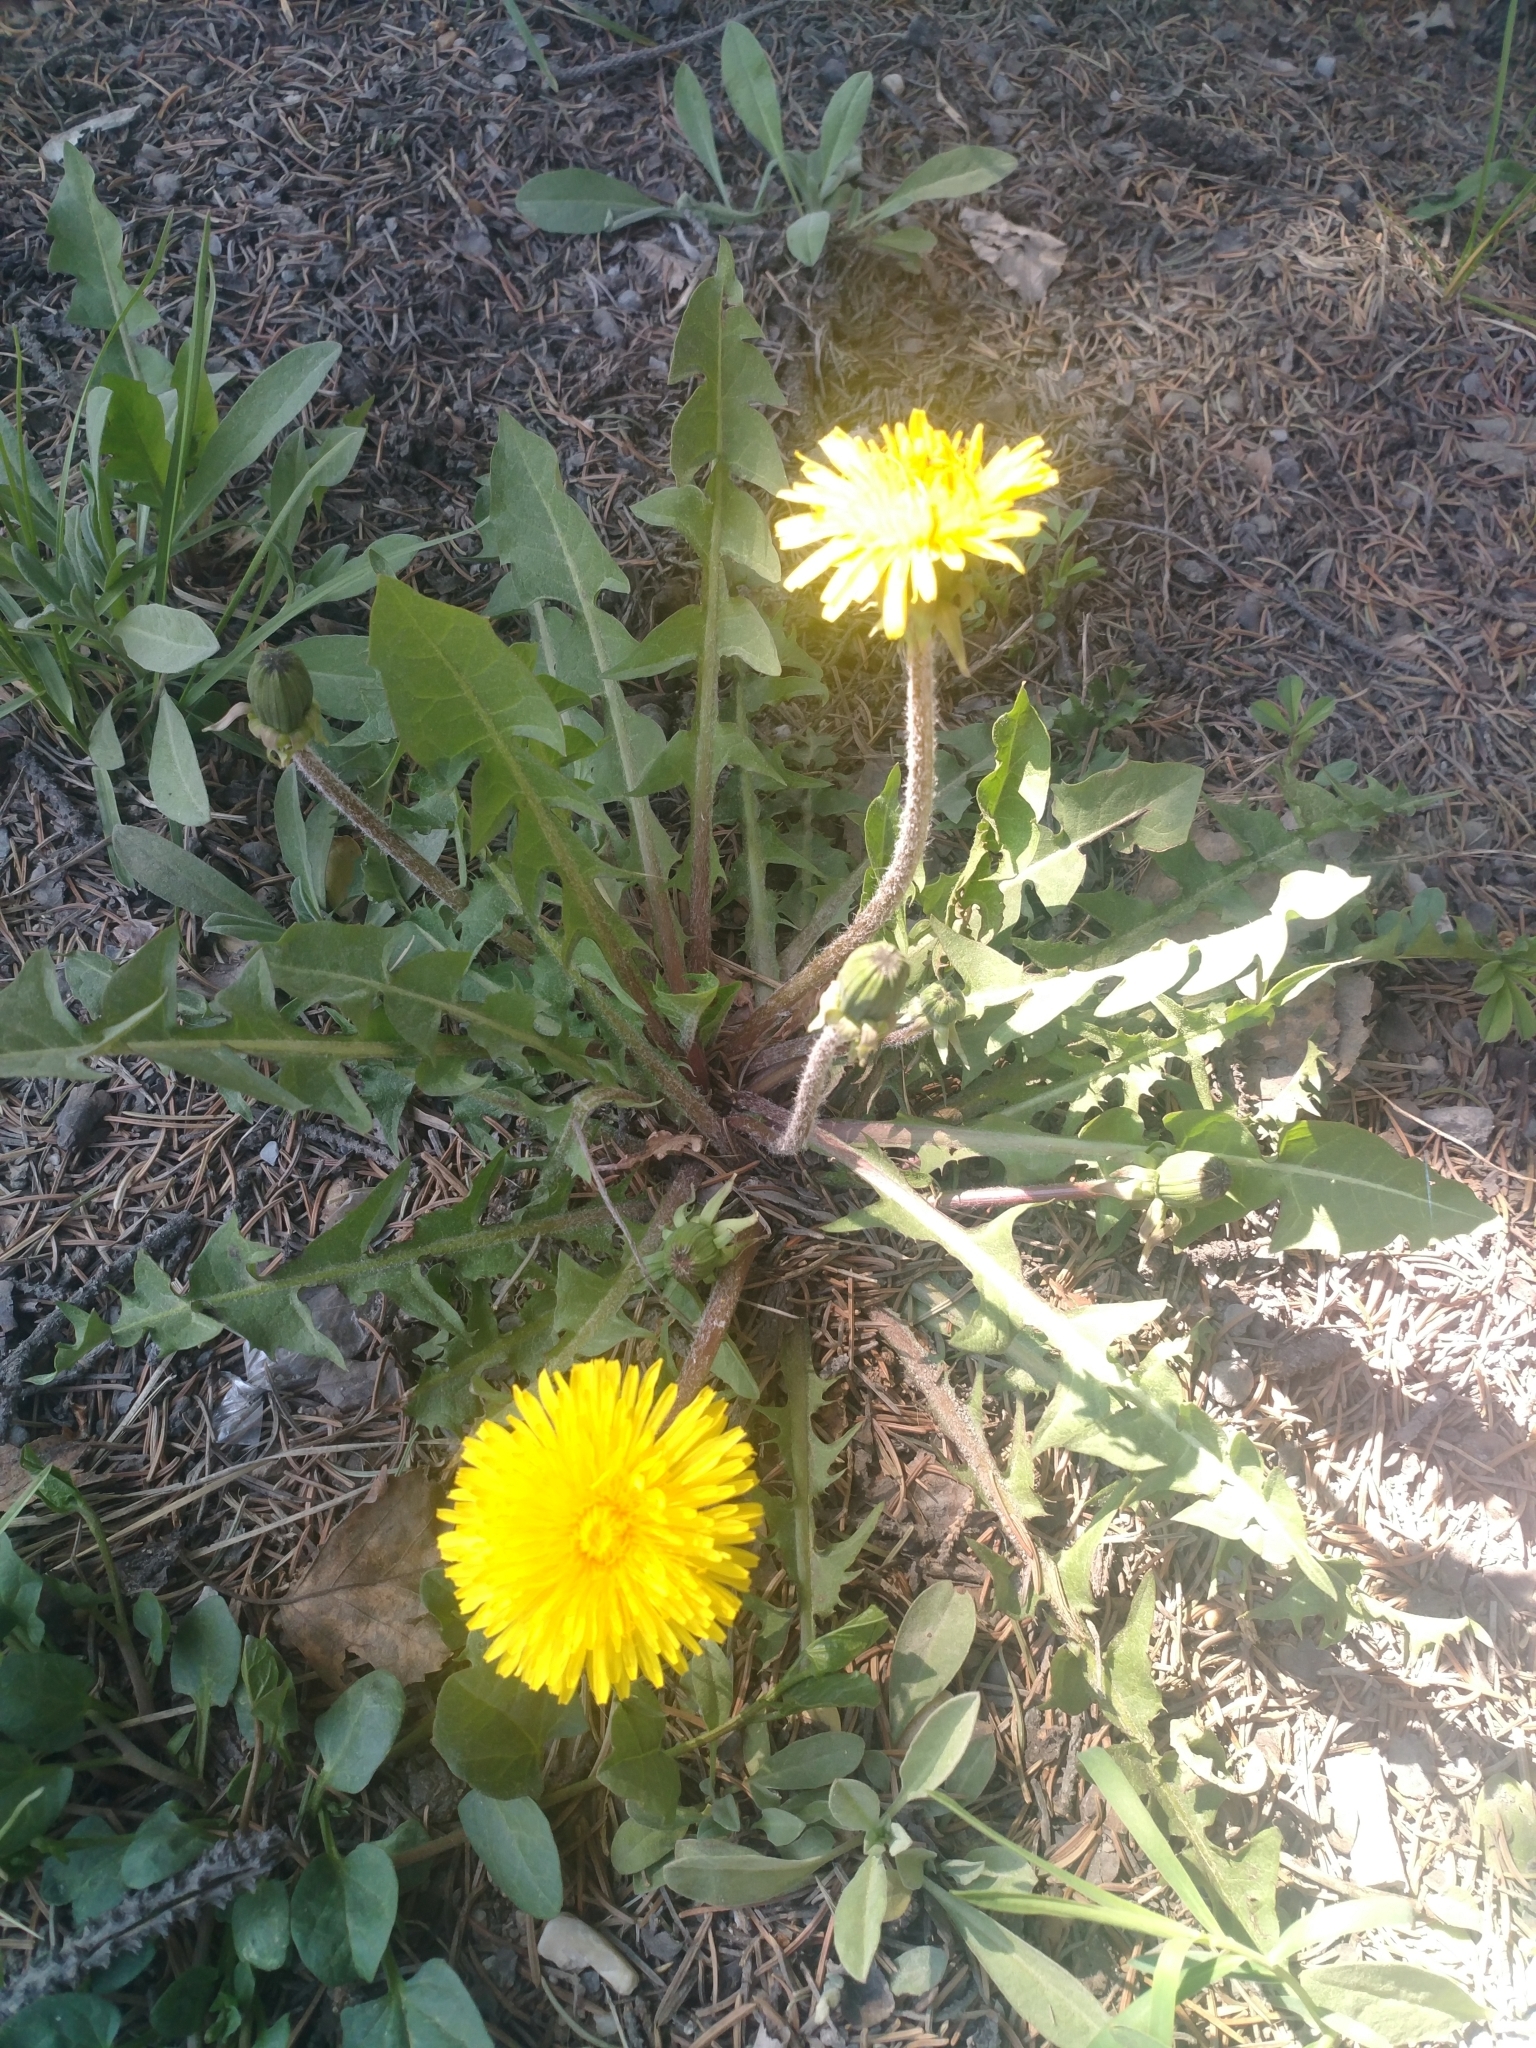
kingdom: Plantae
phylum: Tracheophyta
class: Magnoliopsida
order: Asterales
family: Asteraceae
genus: Taraxacum
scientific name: Taraxacum officinale
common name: Common dandelion
